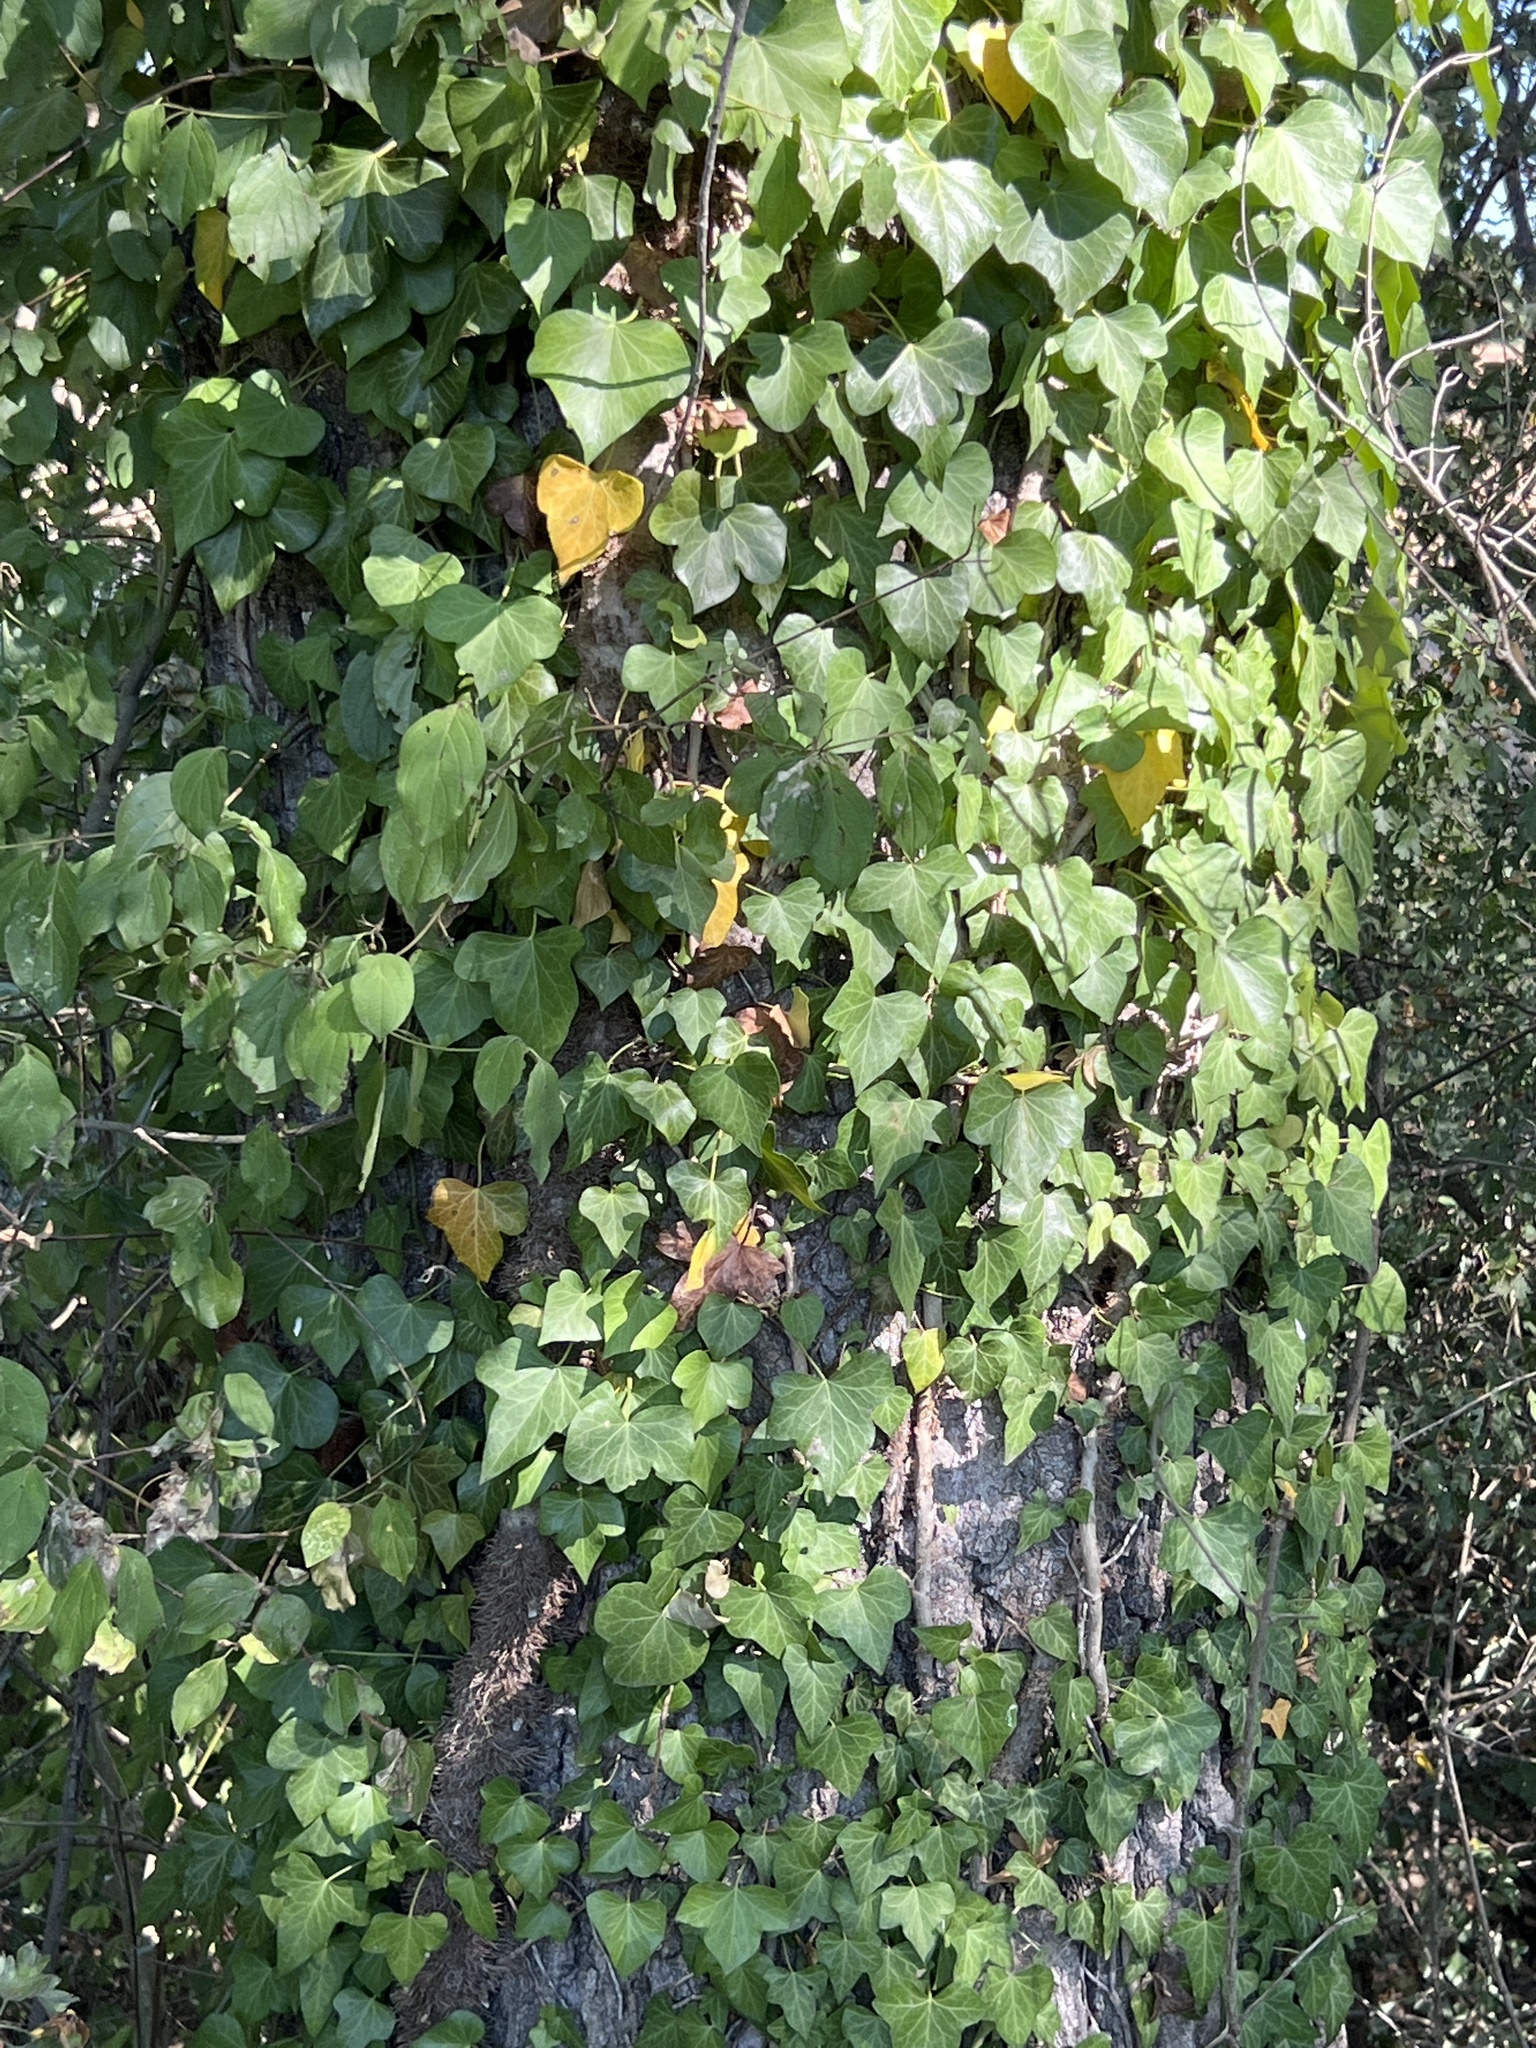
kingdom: Plantae
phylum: Tracheophyta
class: Magnoliopsida
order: Apiales
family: Araliaceae
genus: Hedera
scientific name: Hedera helix
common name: Ivy
